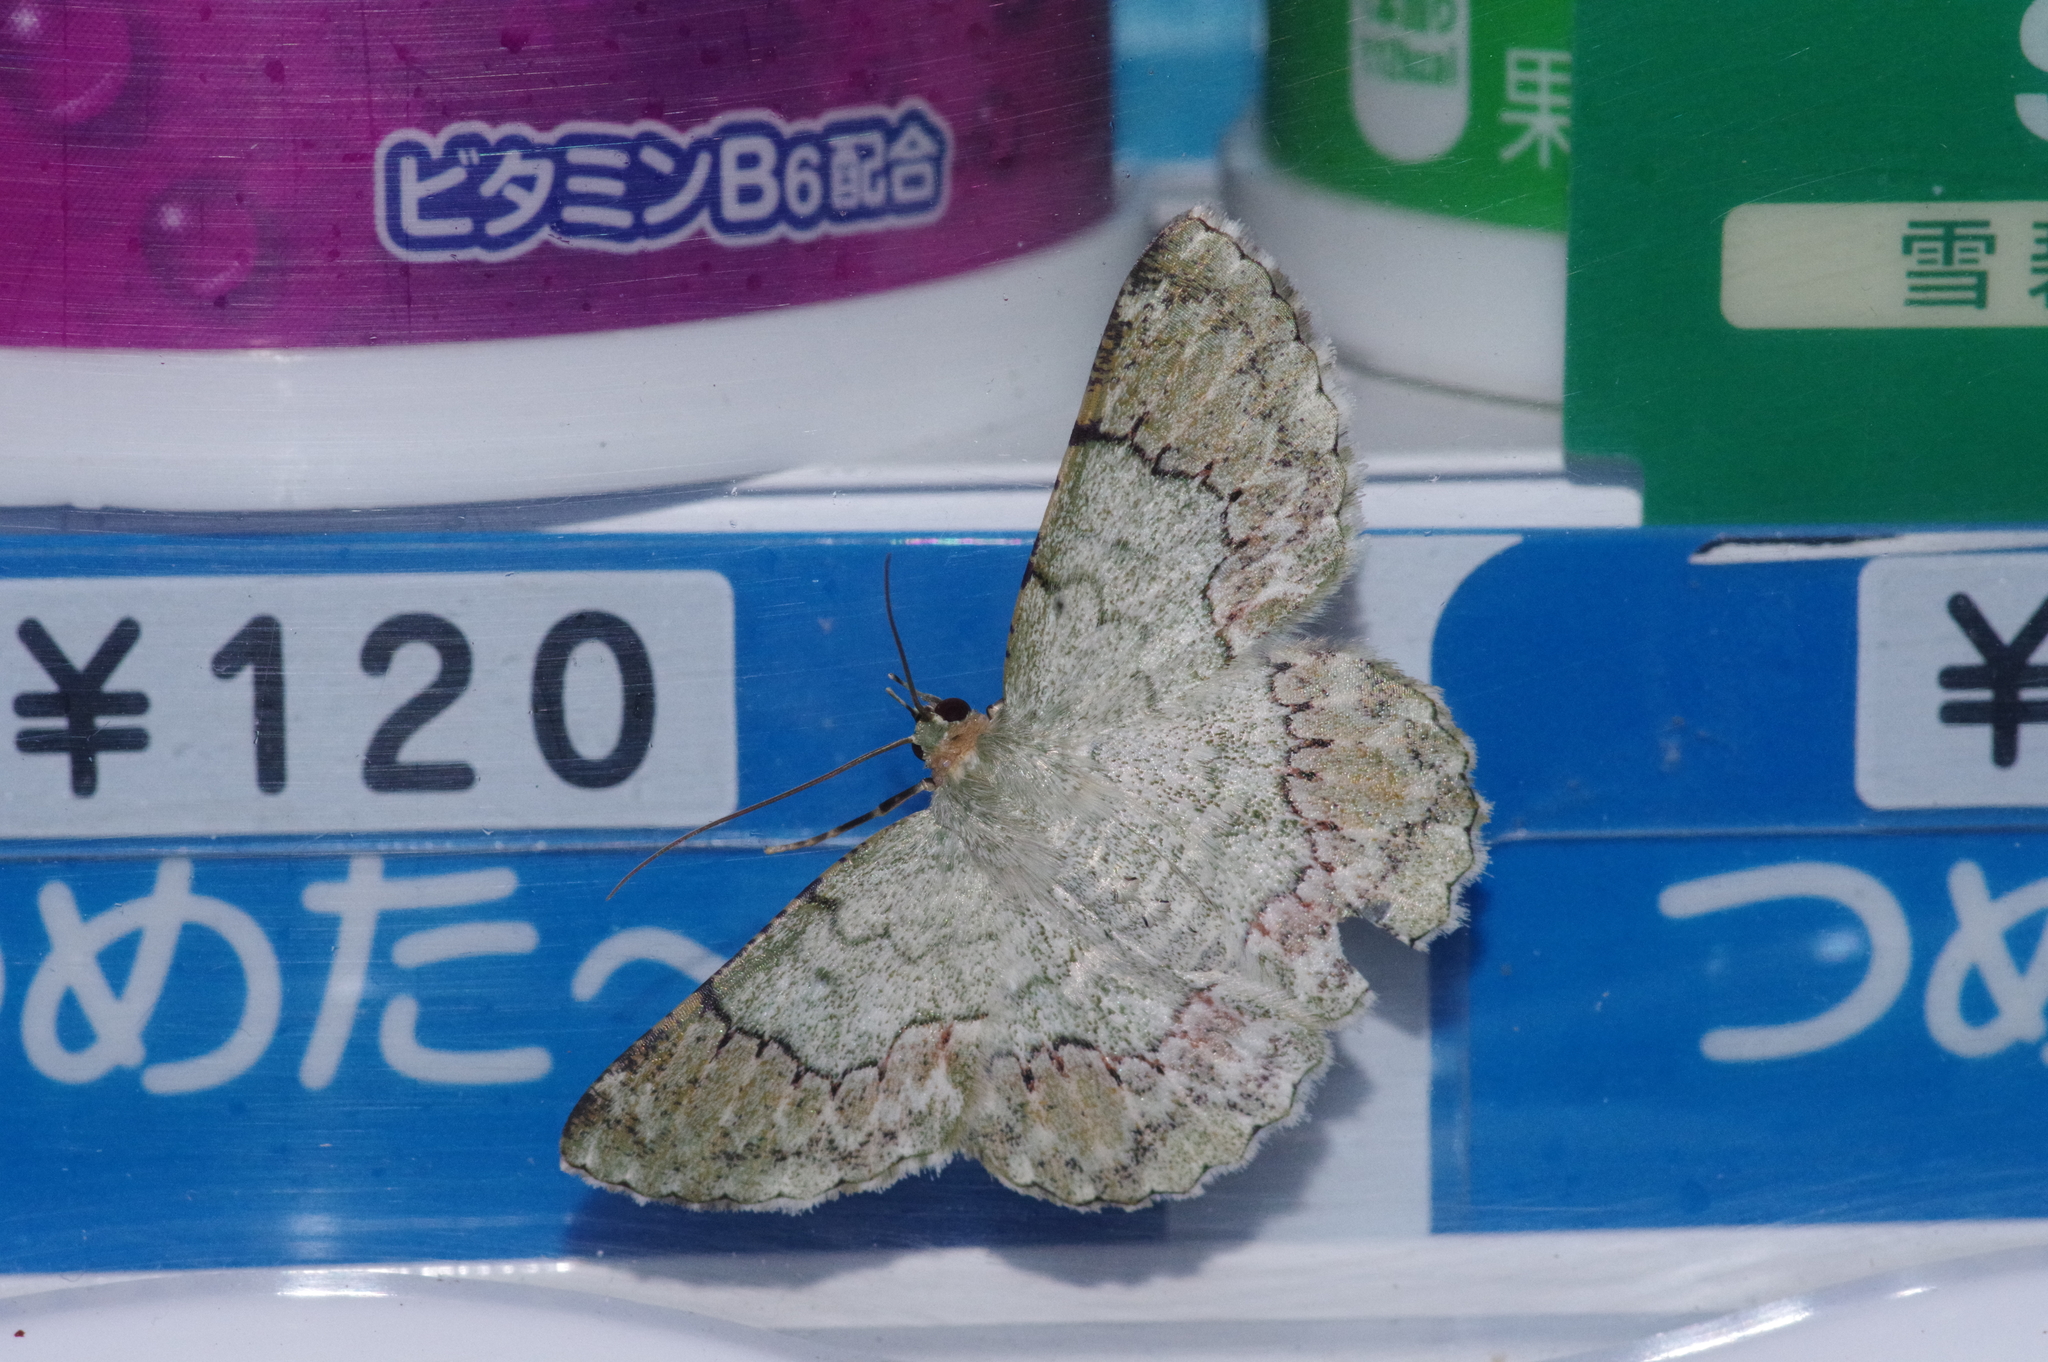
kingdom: Animalia
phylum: Arthropoda
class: Insecta
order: Lepidoptera
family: Geometridae
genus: Pingasa
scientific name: Pingasa ruginaria
